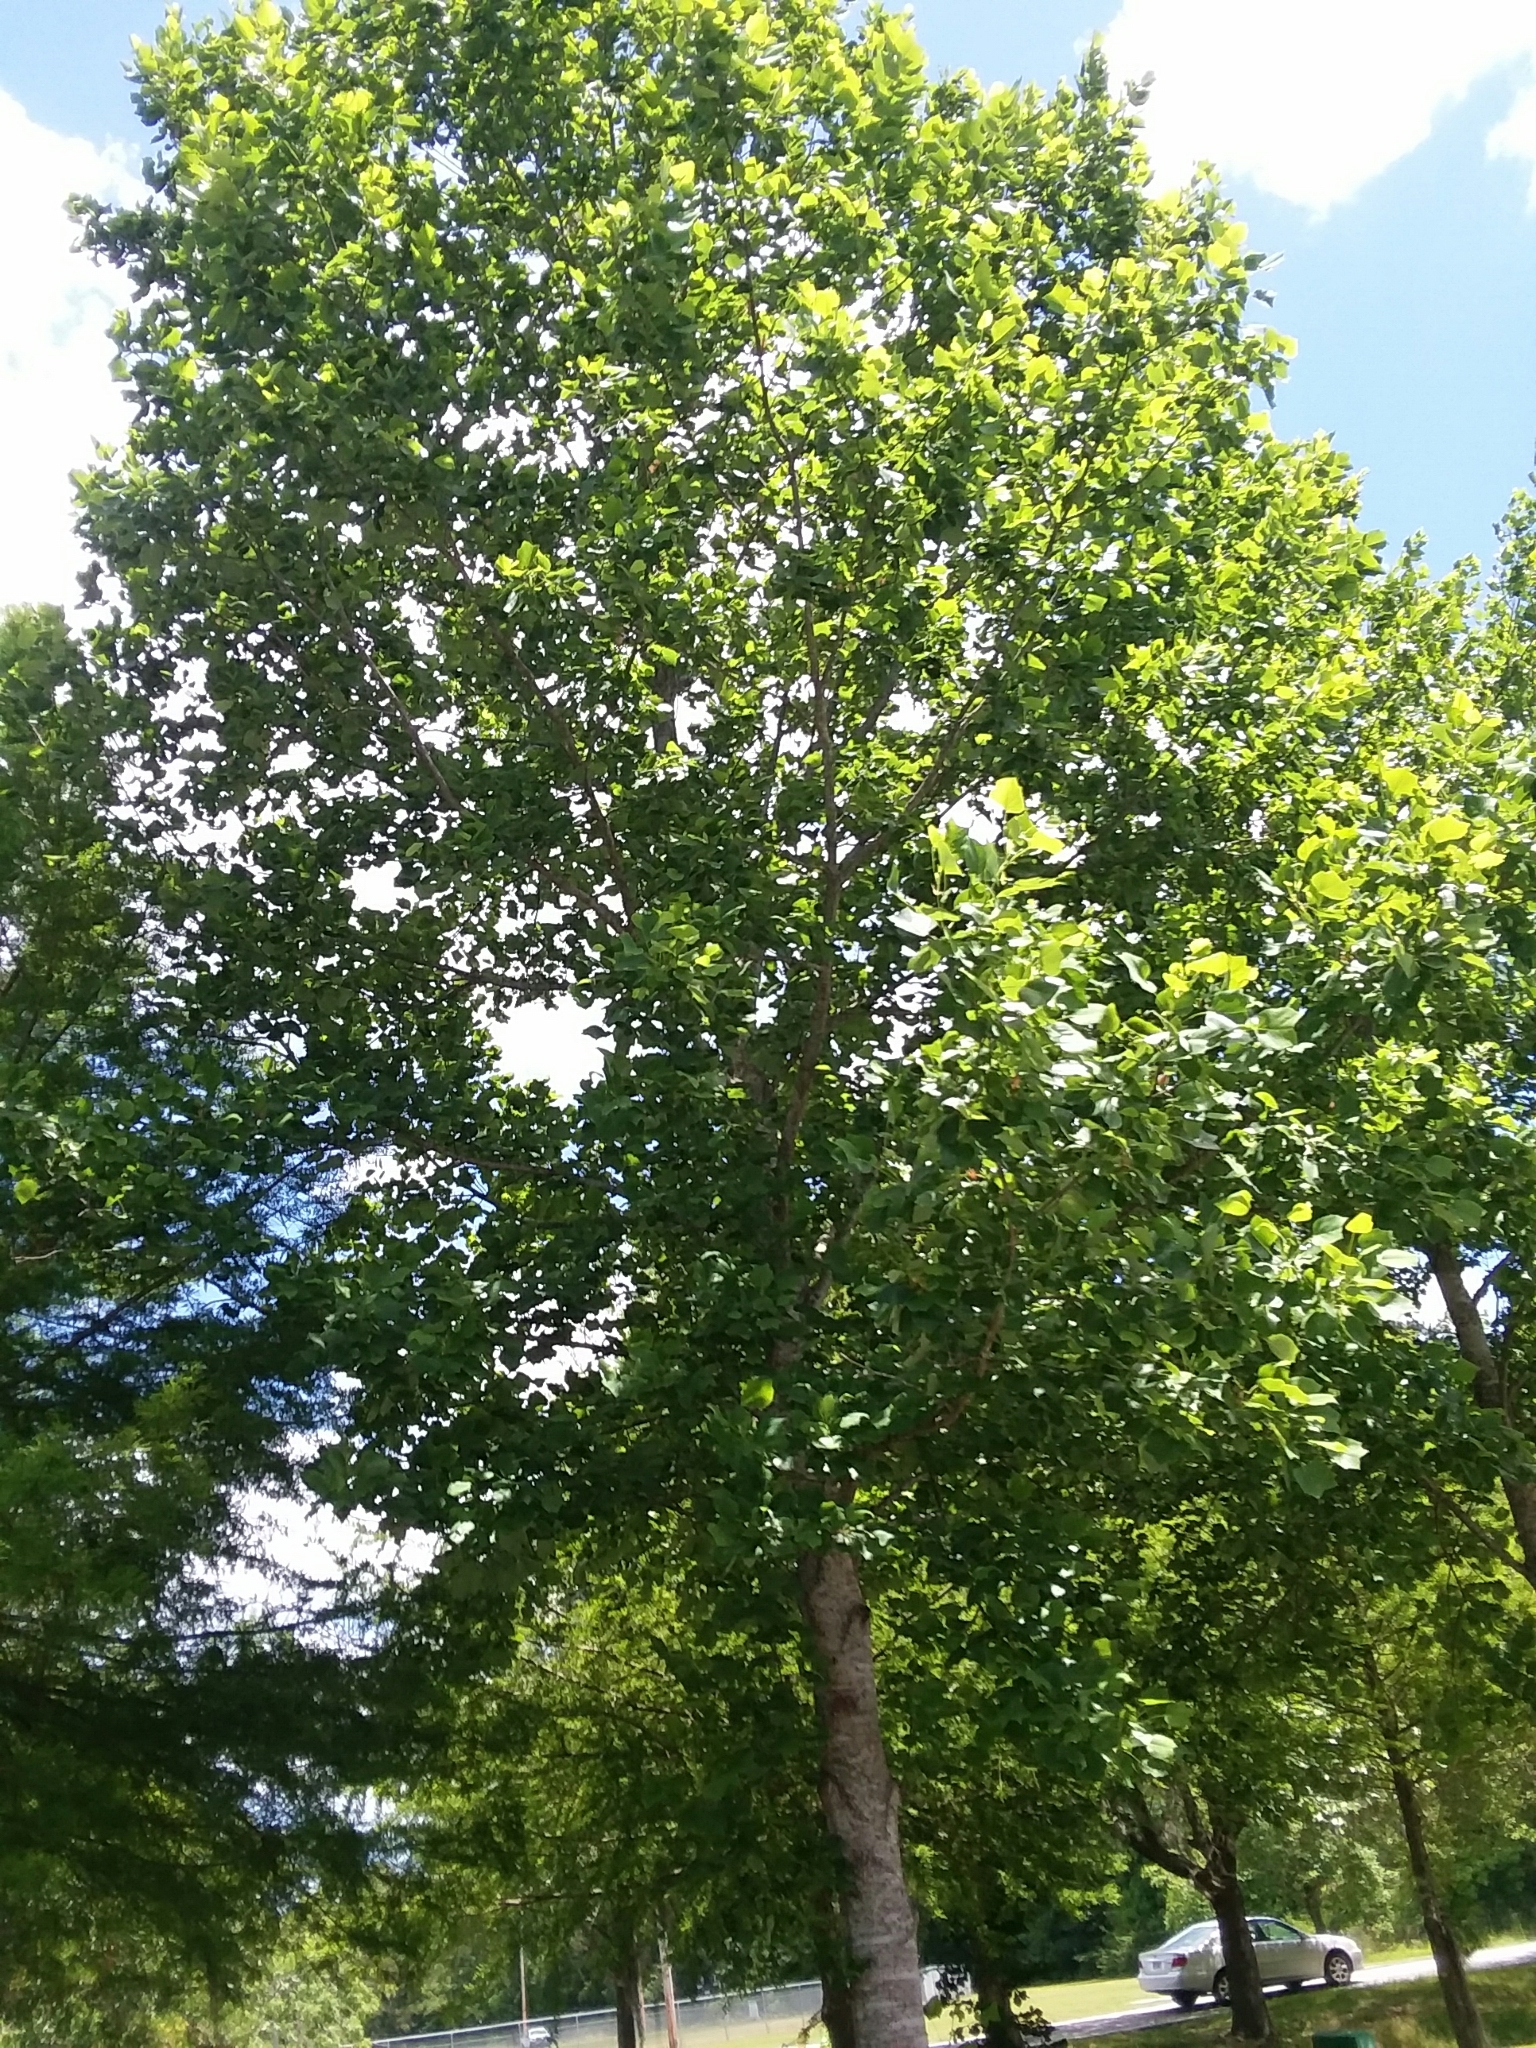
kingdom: Plantae
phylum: Tracheophyta
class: Magnoliopsida
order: Magnoliales
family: Magnoliaceae
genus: Liriodendron
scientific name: Liriodendron tulipifera
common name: Tulip tree
